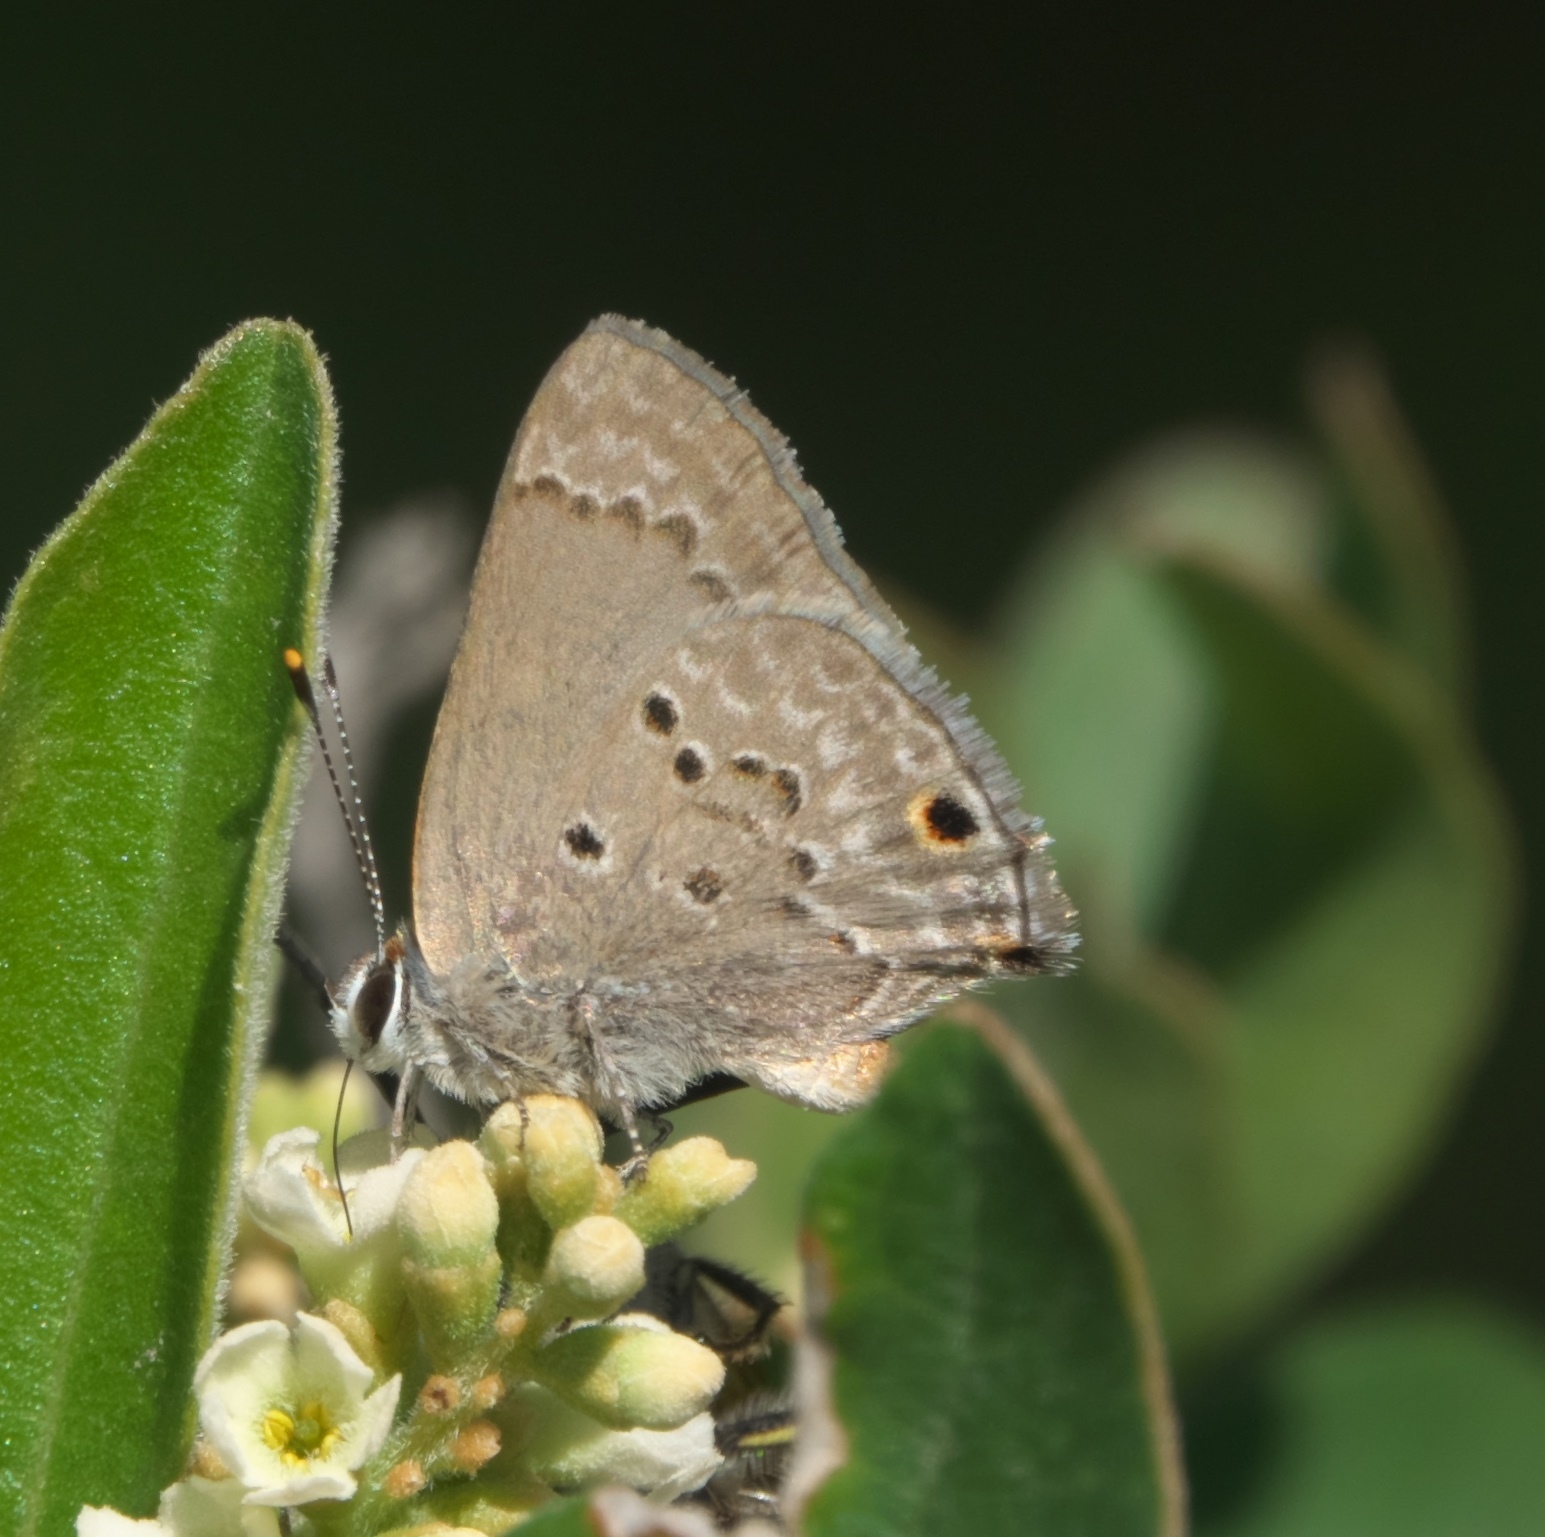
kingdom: Animalia
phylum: Arthropoda
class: Insecta
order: Lepidoptera
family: Lycaenidae
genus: Callicista
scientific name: Callicista columella
